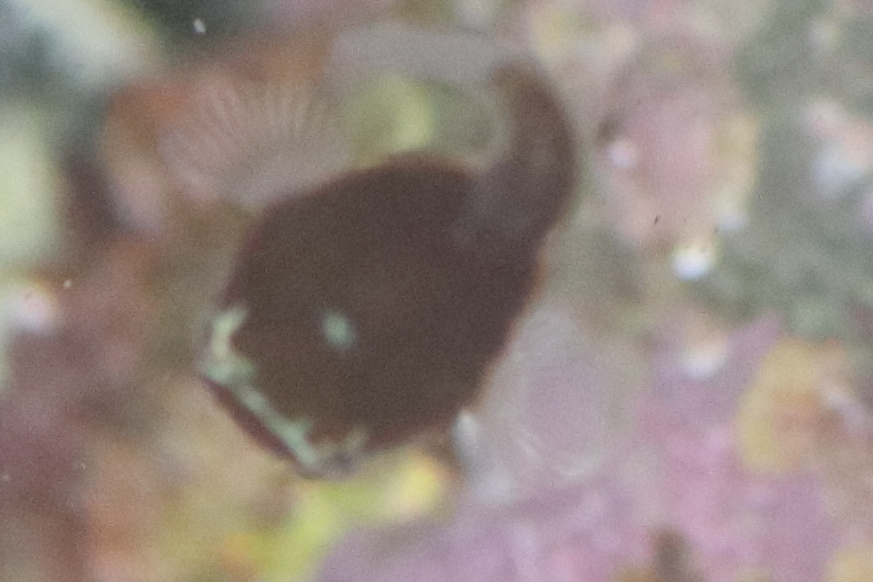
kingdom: Animalia
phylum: Chordata
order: Scorpaeniformes
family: Cyclopteridae
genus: Aptocyclus
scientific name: Aptocyclus ventricosus
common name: Smooth lumpsucker
